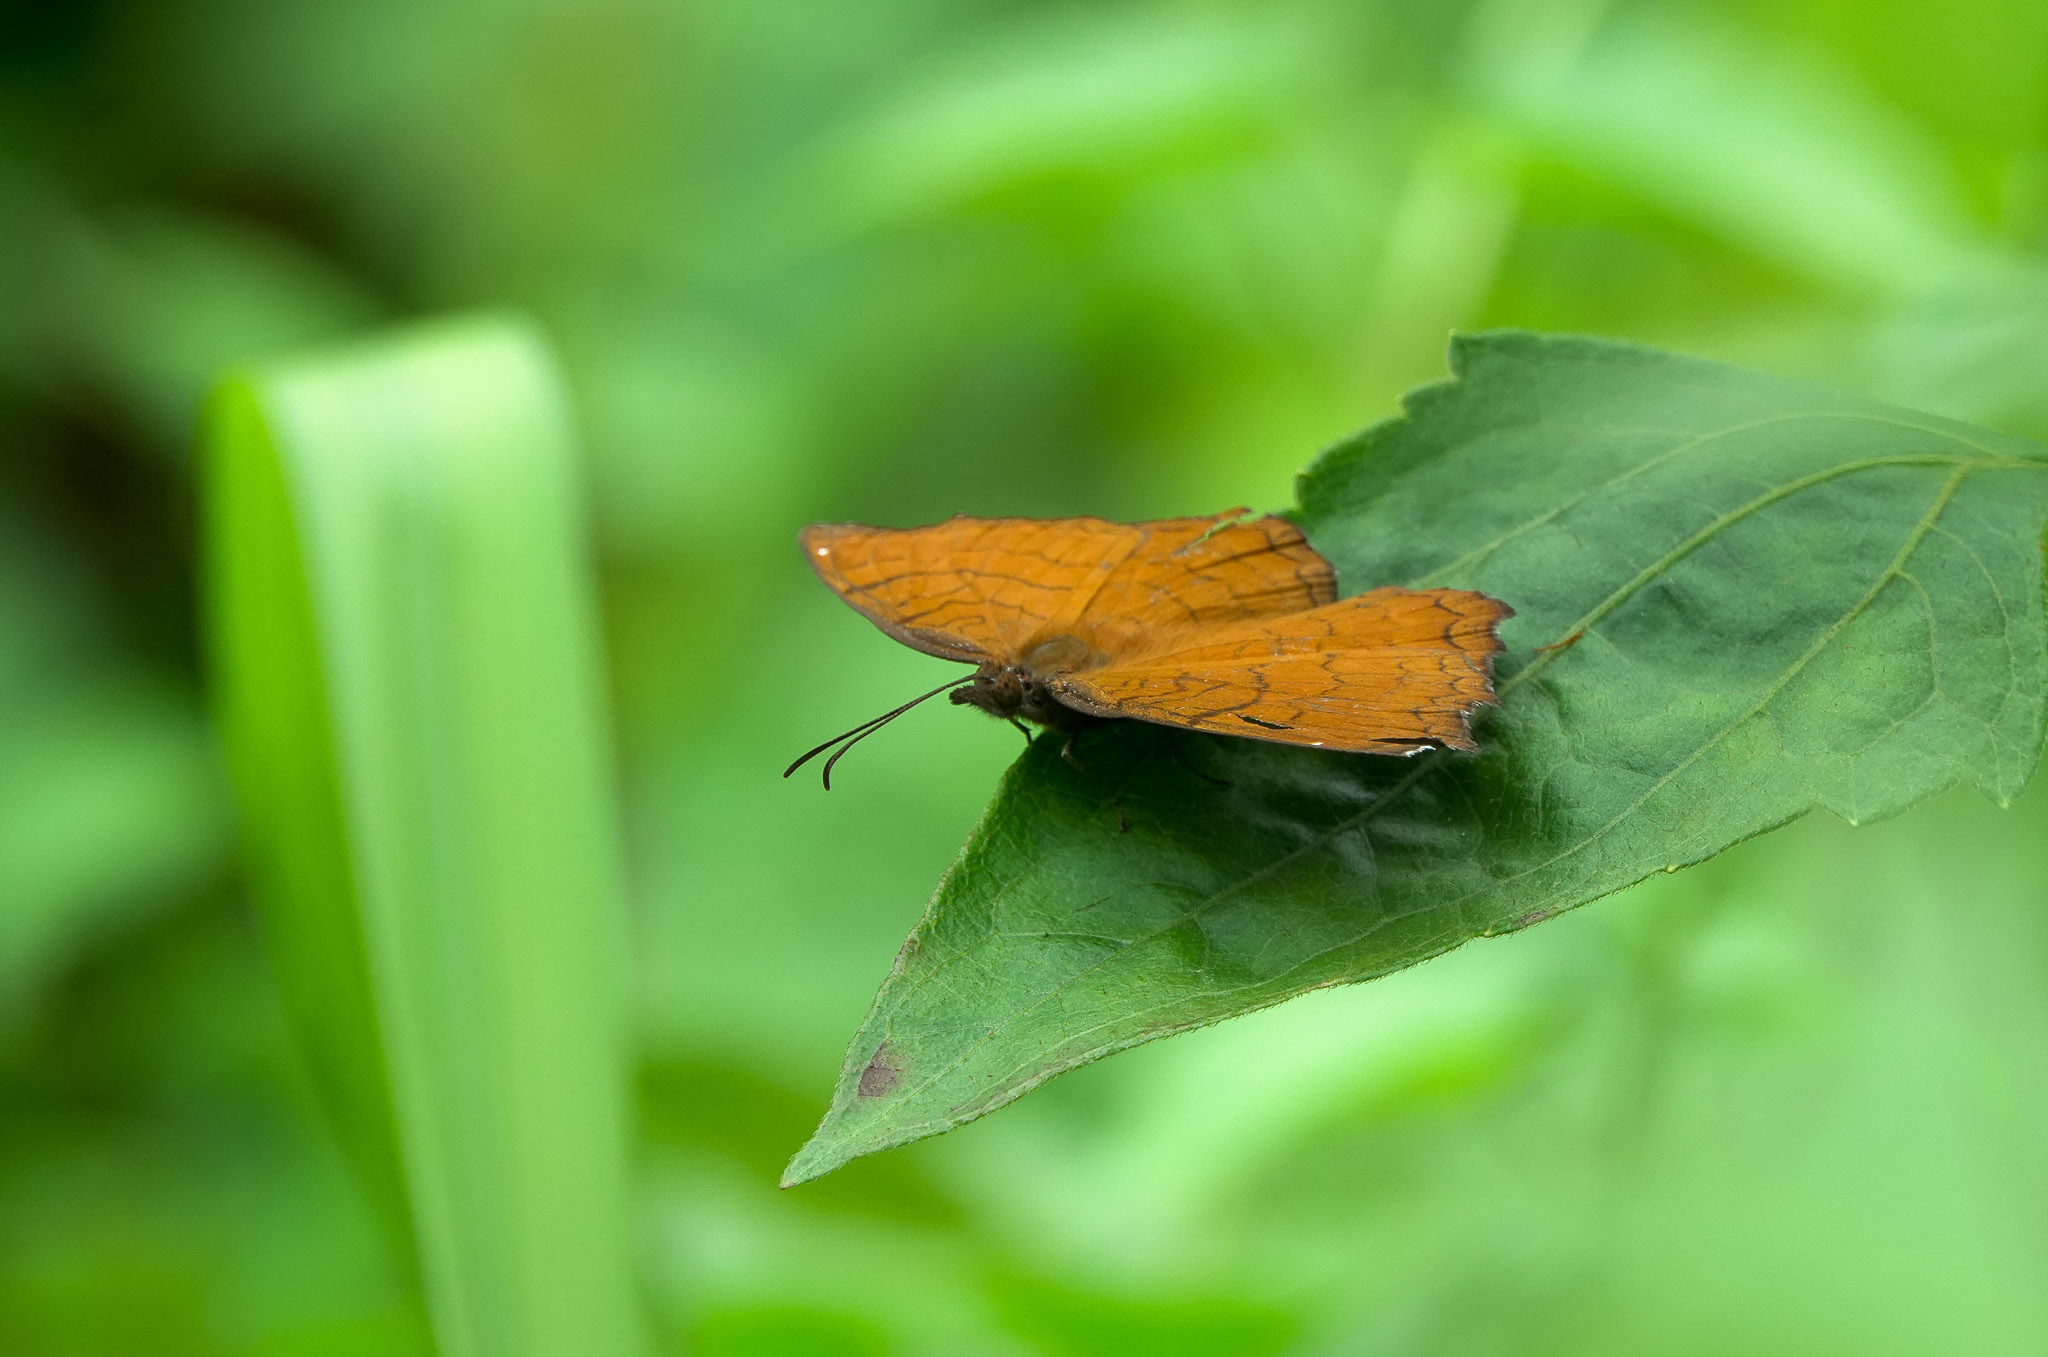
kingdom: Animalia
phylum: Arthropoda
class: Insecta
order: Lepidoptera
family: Nymphalidae
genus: Ariadne
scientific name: Ariadne ariadne
